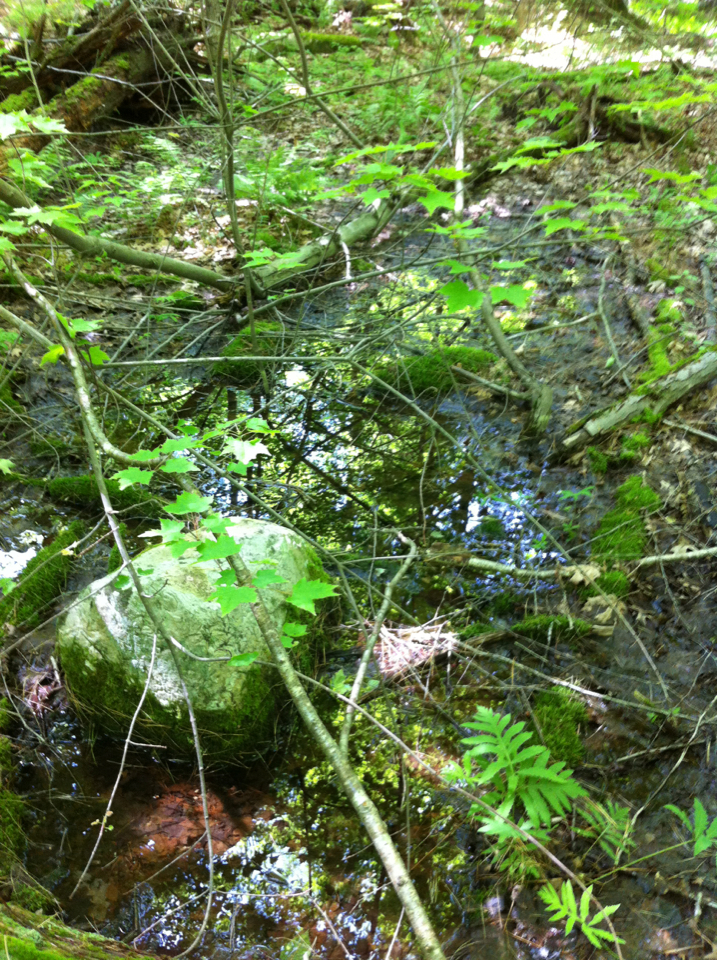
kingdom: Plantae
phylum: Tracheophyta
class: Polypodiopsida
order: Polypodiales
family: Onocleaceae
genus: Onoclea
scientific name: Onoclea sensibilis
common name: Sensitive fern
